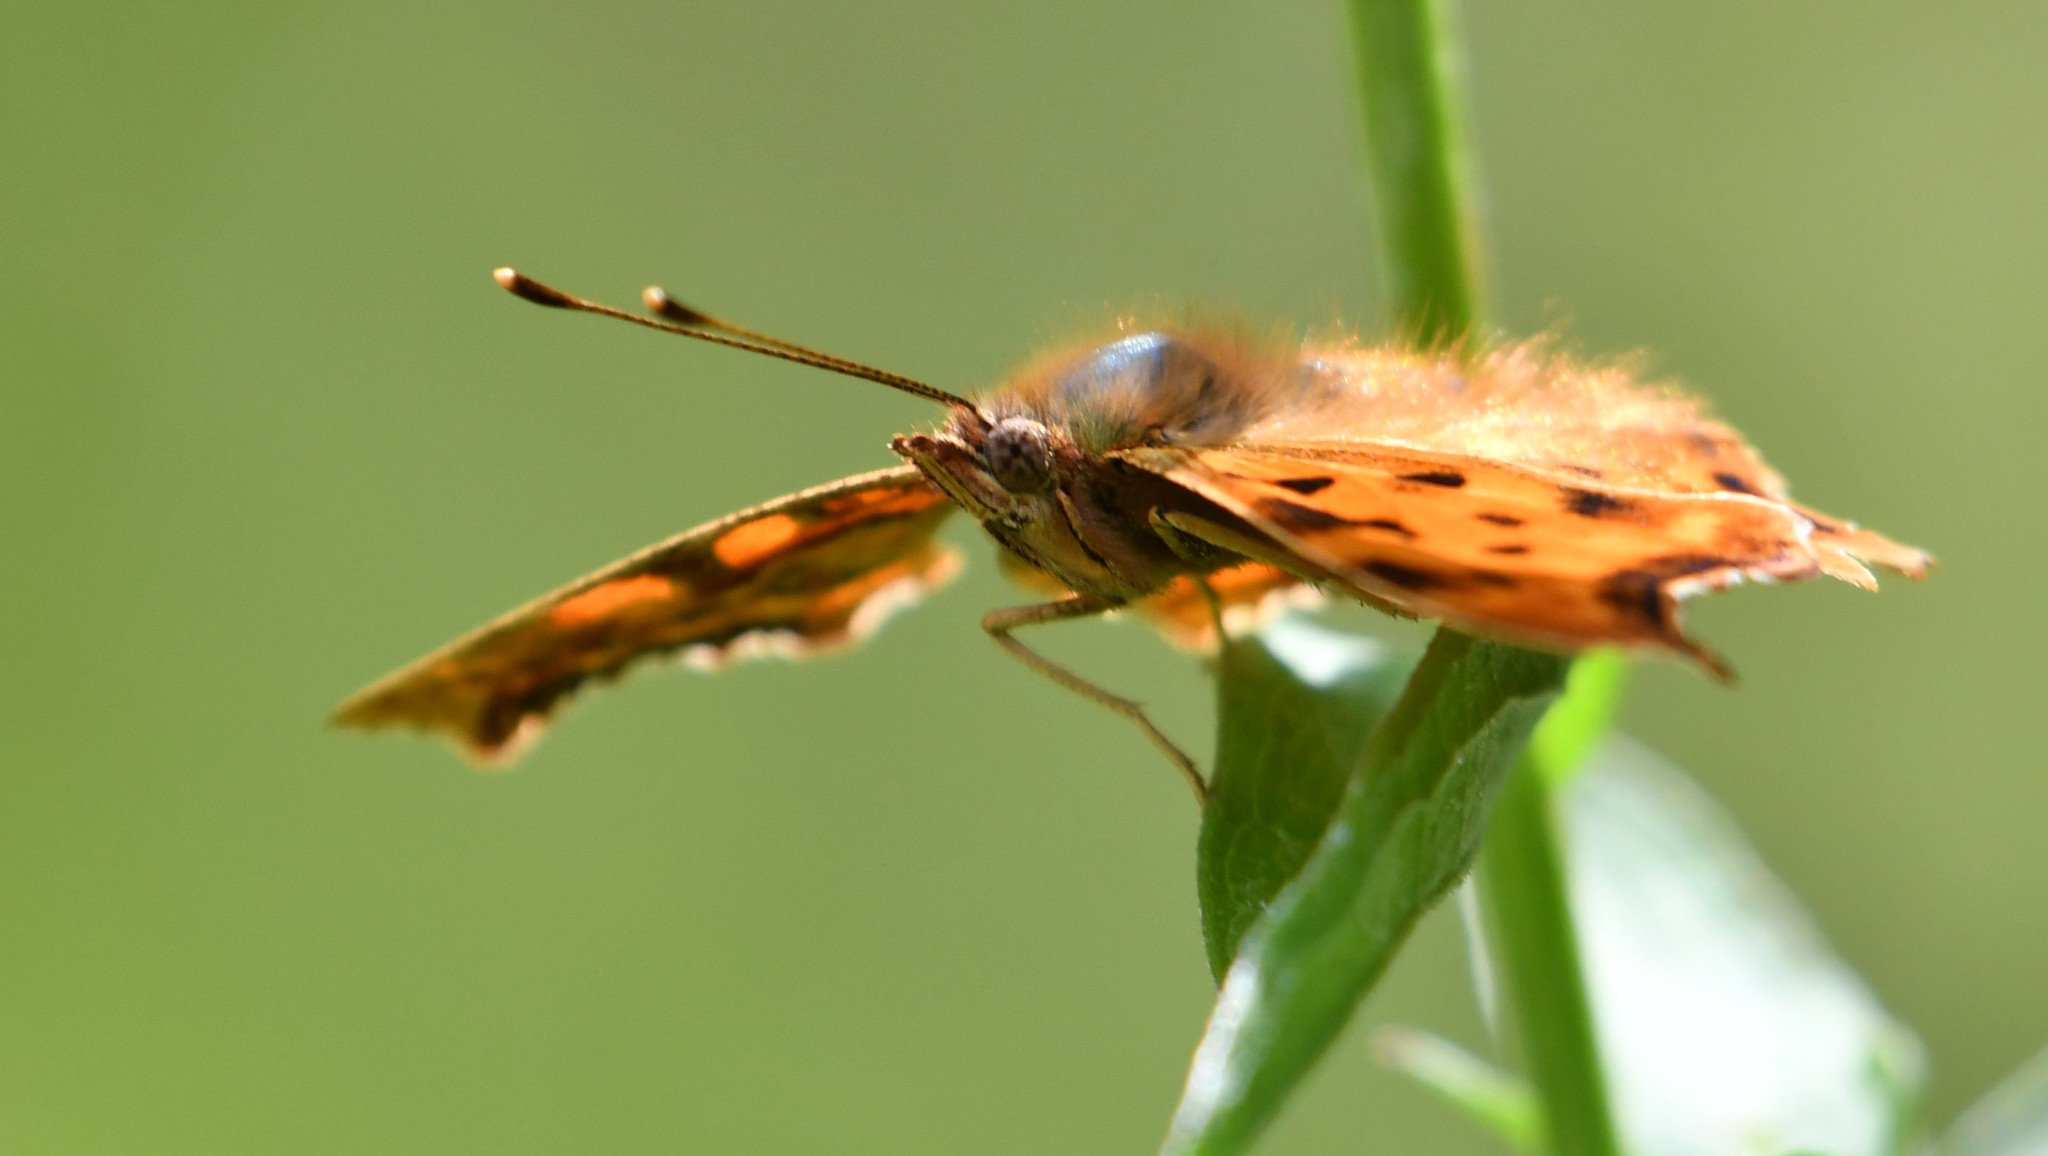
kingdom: Animalia
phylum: Arthropoda
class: Insecta
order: Lepidoptera
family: Nymphalidae
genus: Polygonia
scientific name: Polygonia c-album
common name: Comma
